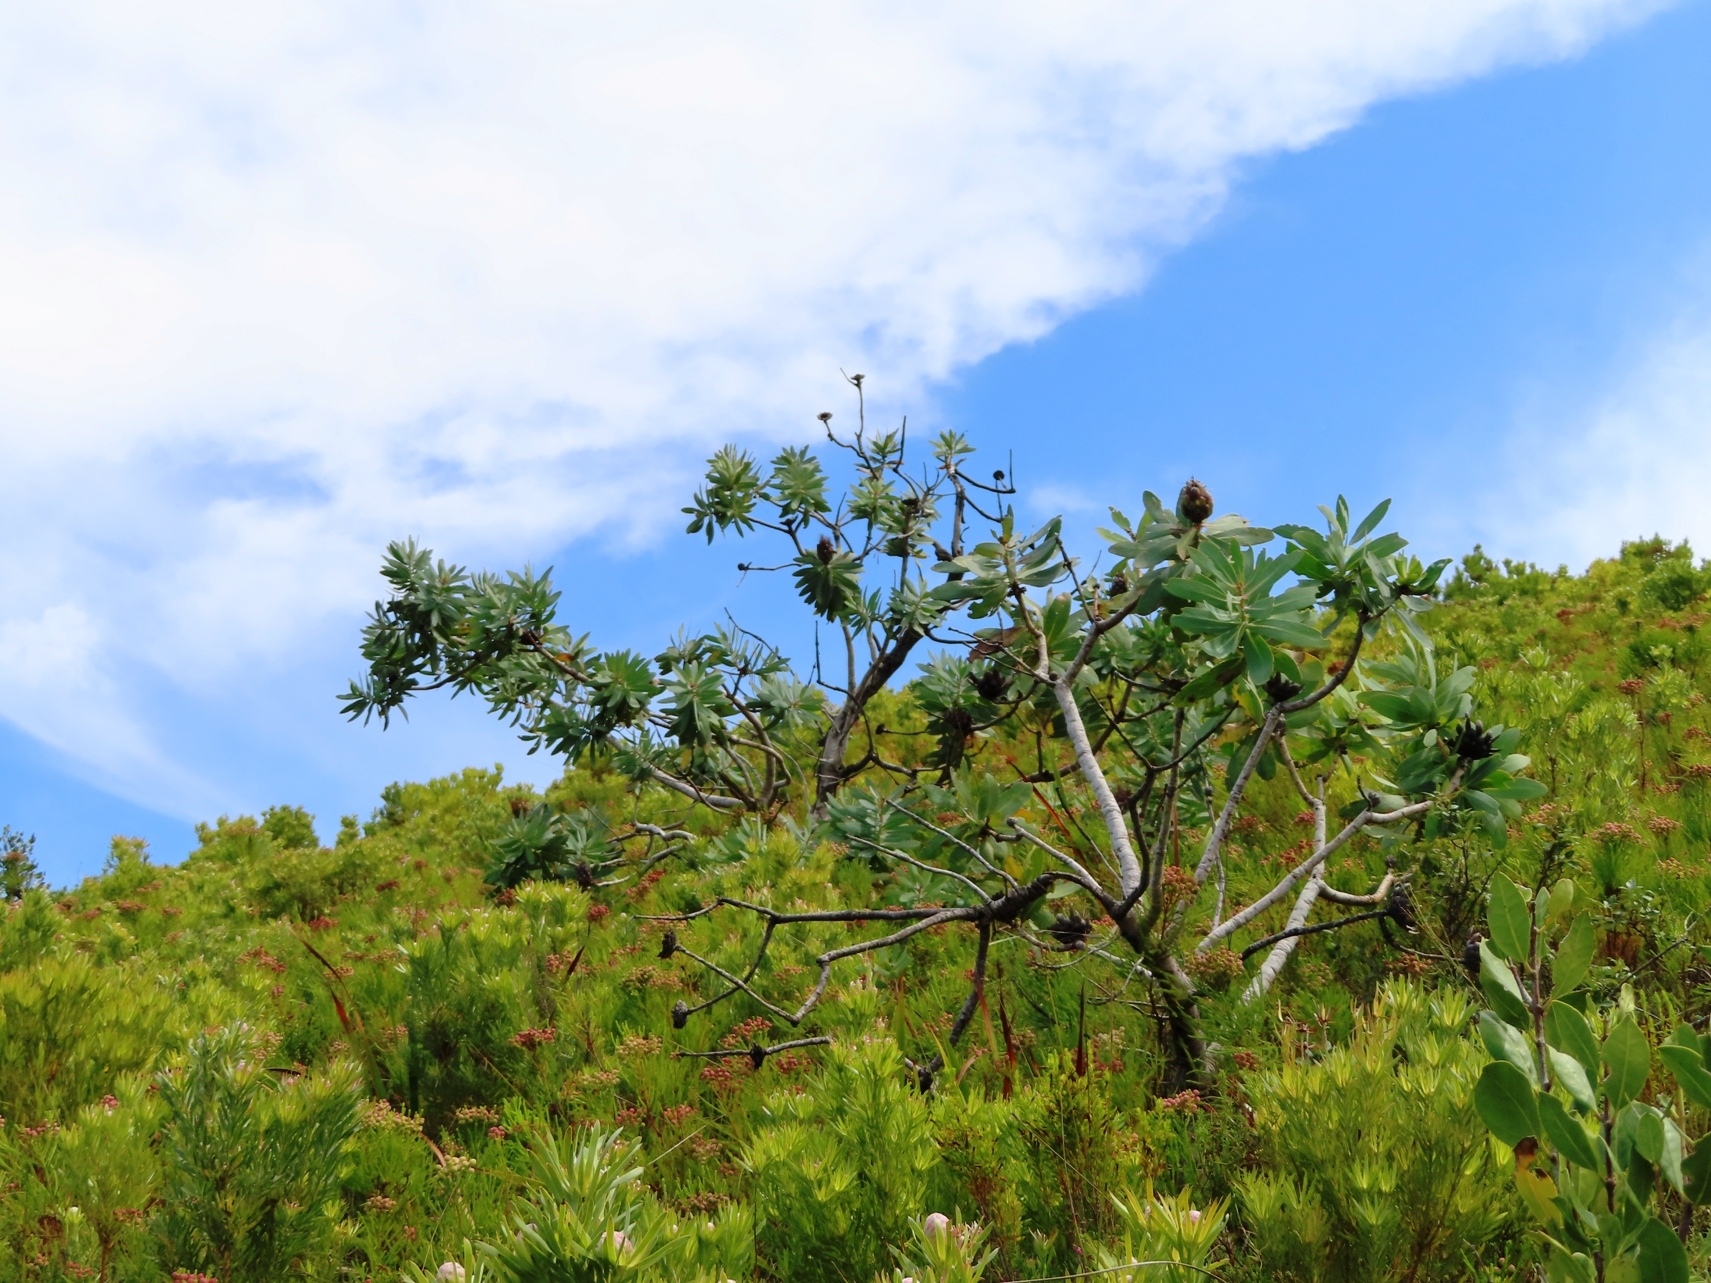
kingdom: Plantae
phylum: Tracheophyta
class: Magnoliopsida
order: Proteales
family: Proteaceae
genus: Protea
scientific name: Protea nitida
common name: Tree protea
